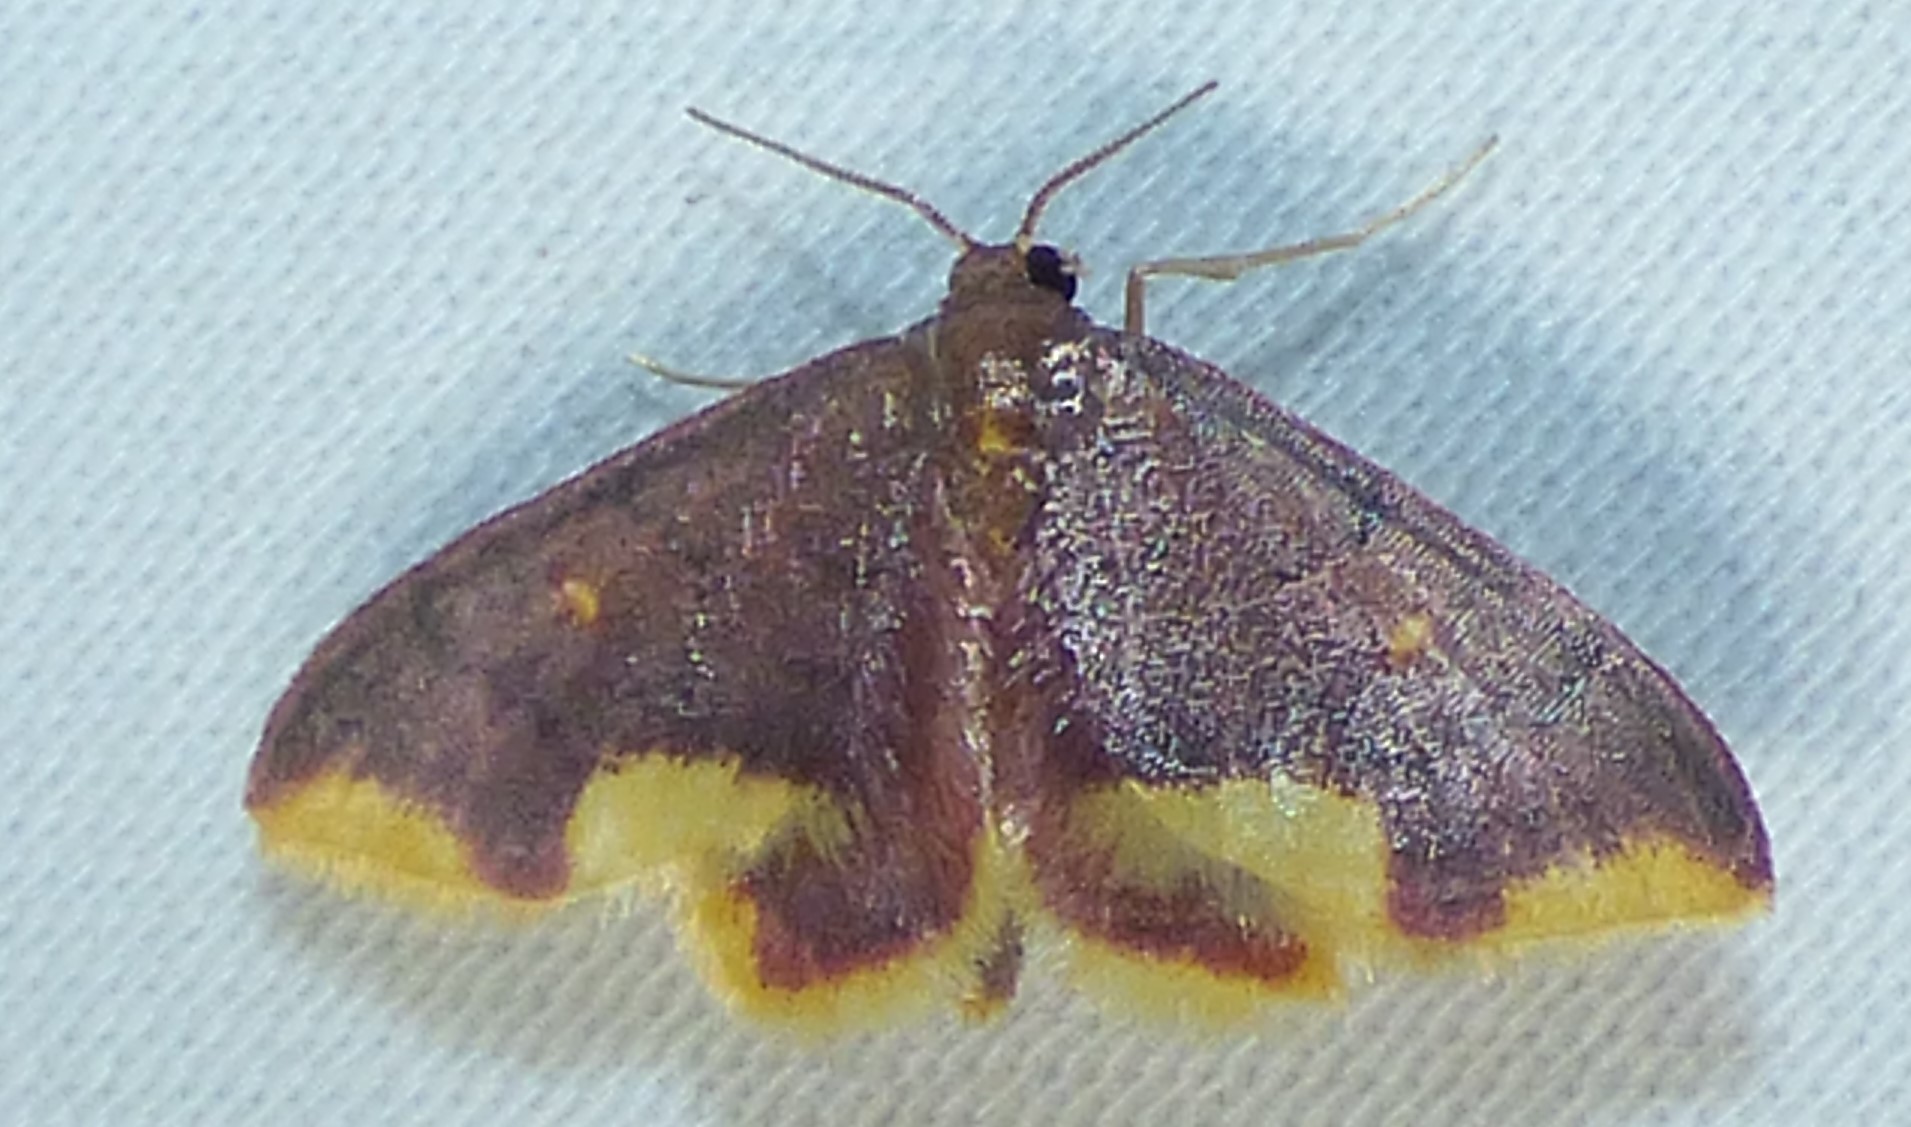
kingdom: Animalia
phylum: Arthropoda
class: Insecta
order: Lepidoptera
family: Geometridae
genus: Lophosis
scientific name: Lophosis labeculata
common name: Stained lophosis moth
